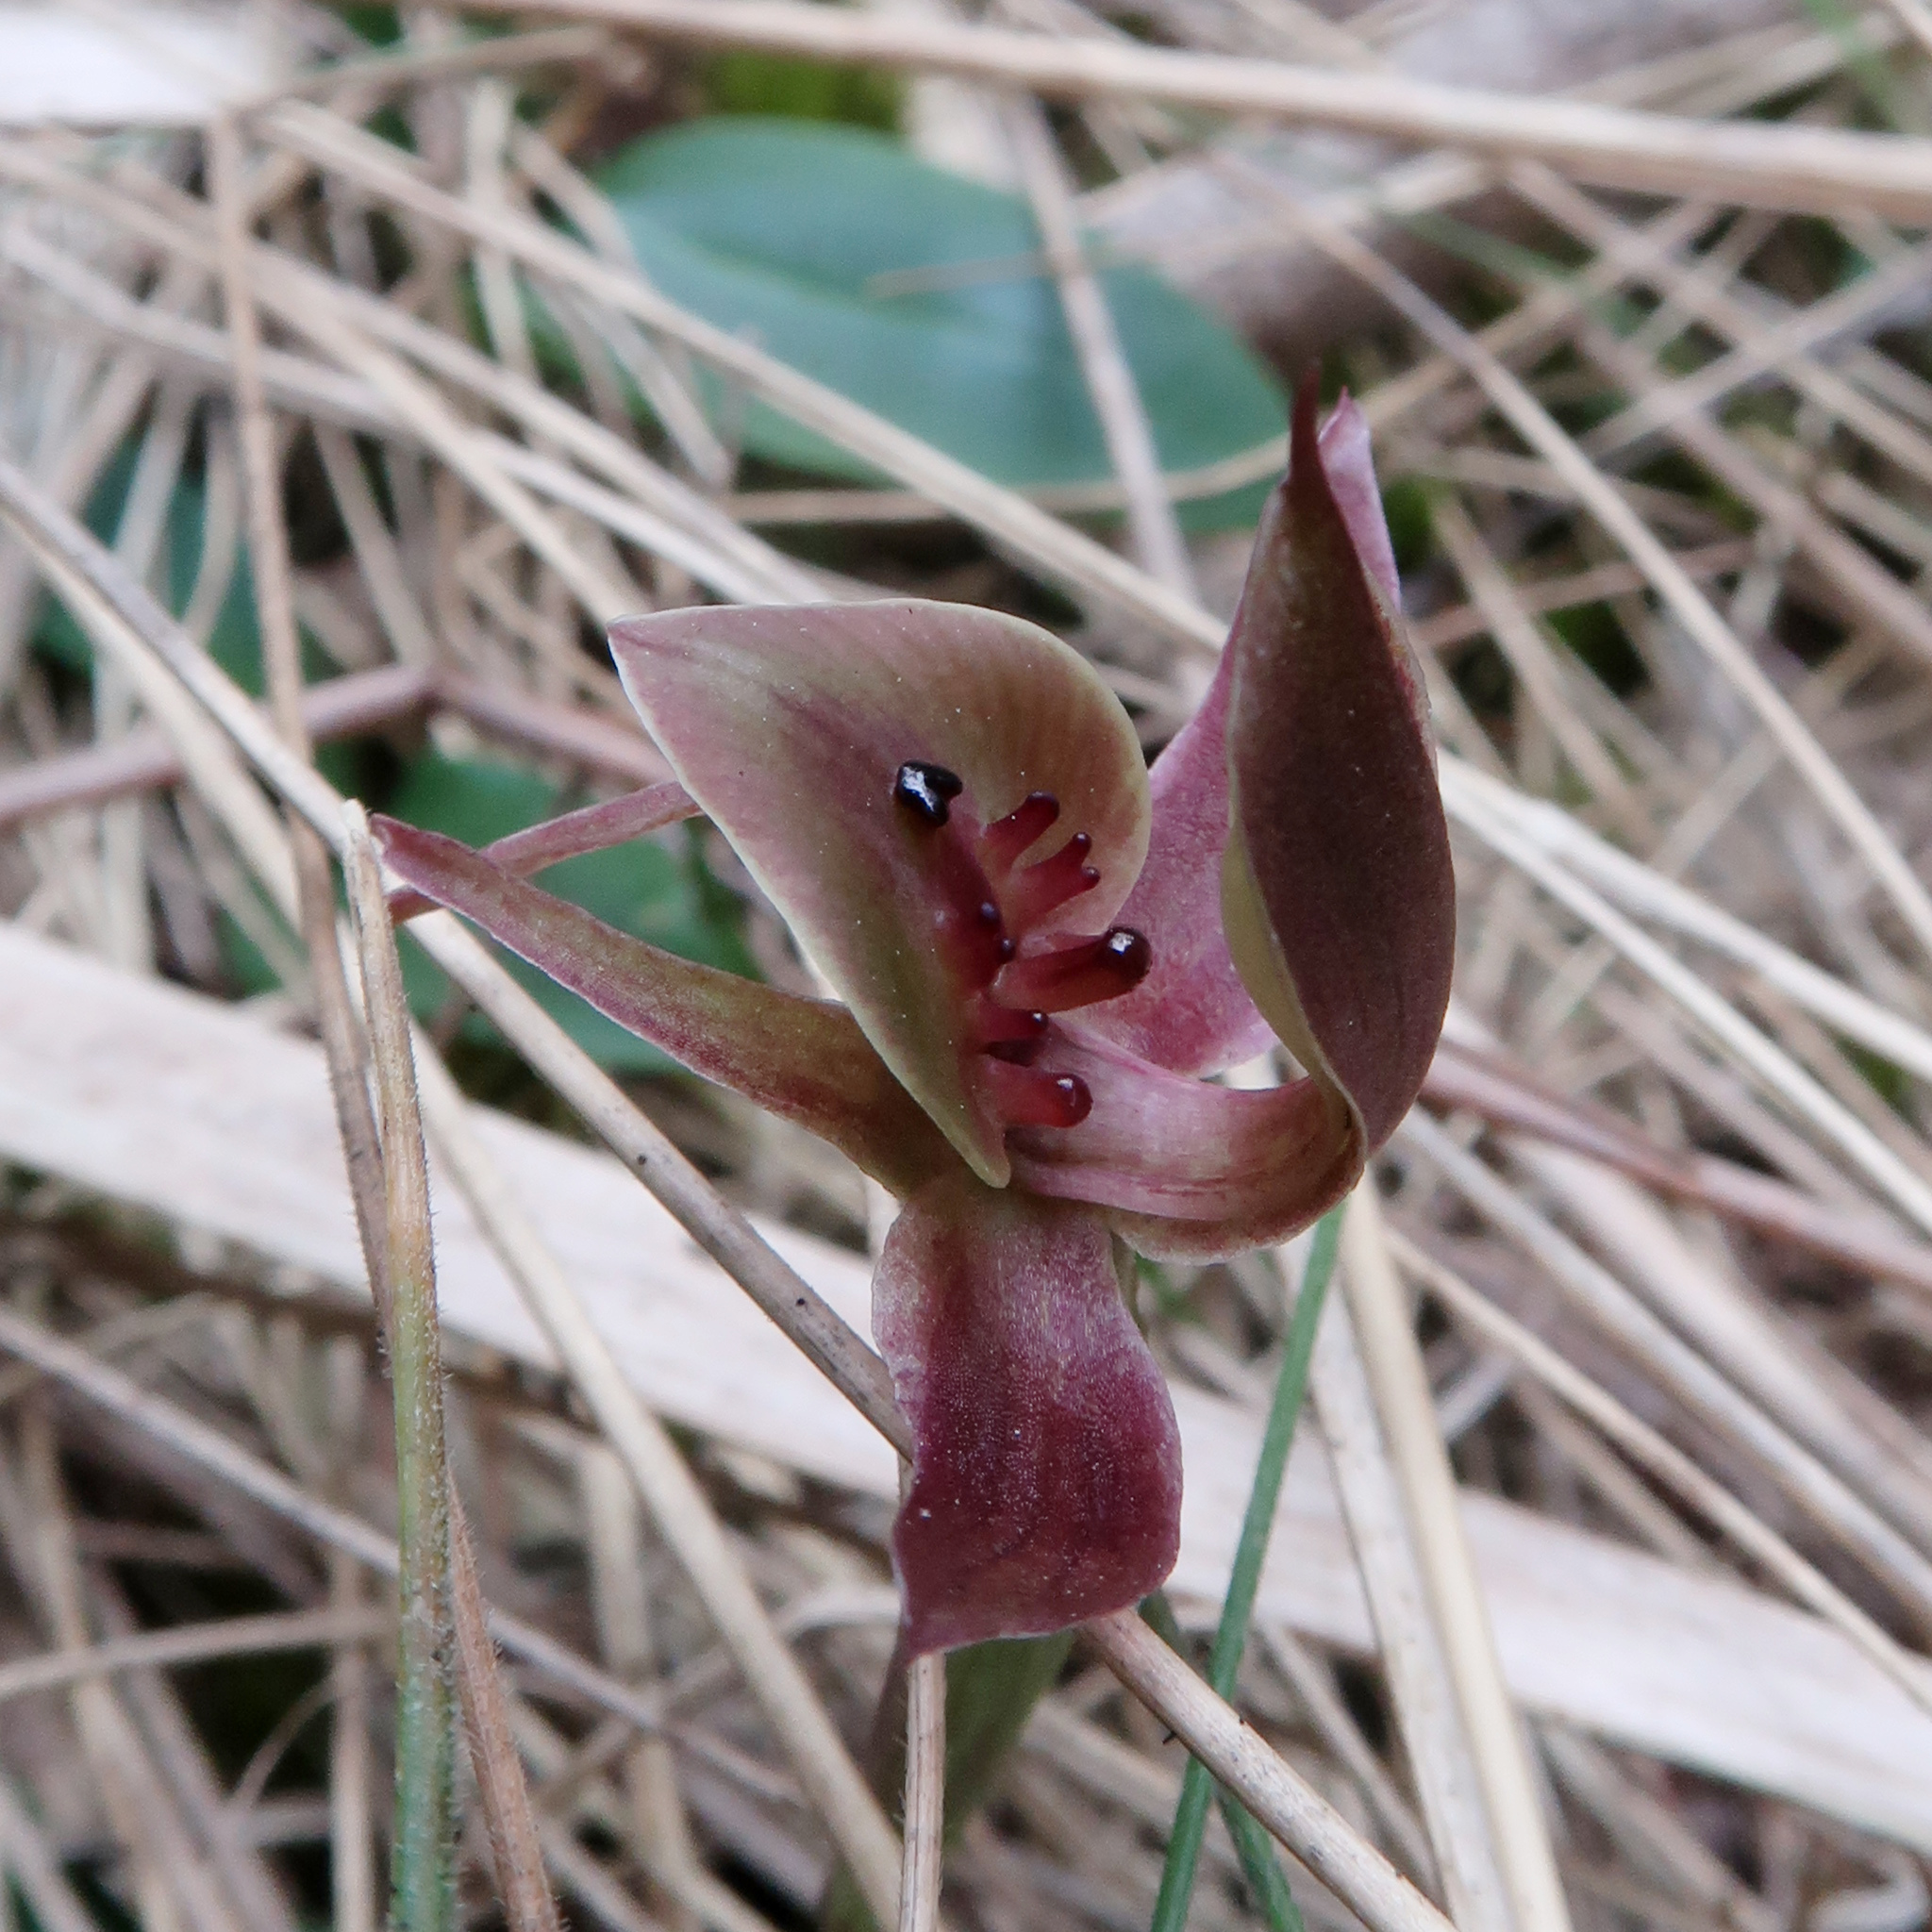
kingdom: Plantae
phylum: Tracheophyta
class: Liliopsida
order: Asparagales
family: Orchidaceae
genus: Chiloglottis
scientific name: Chiloglottis triceratops
